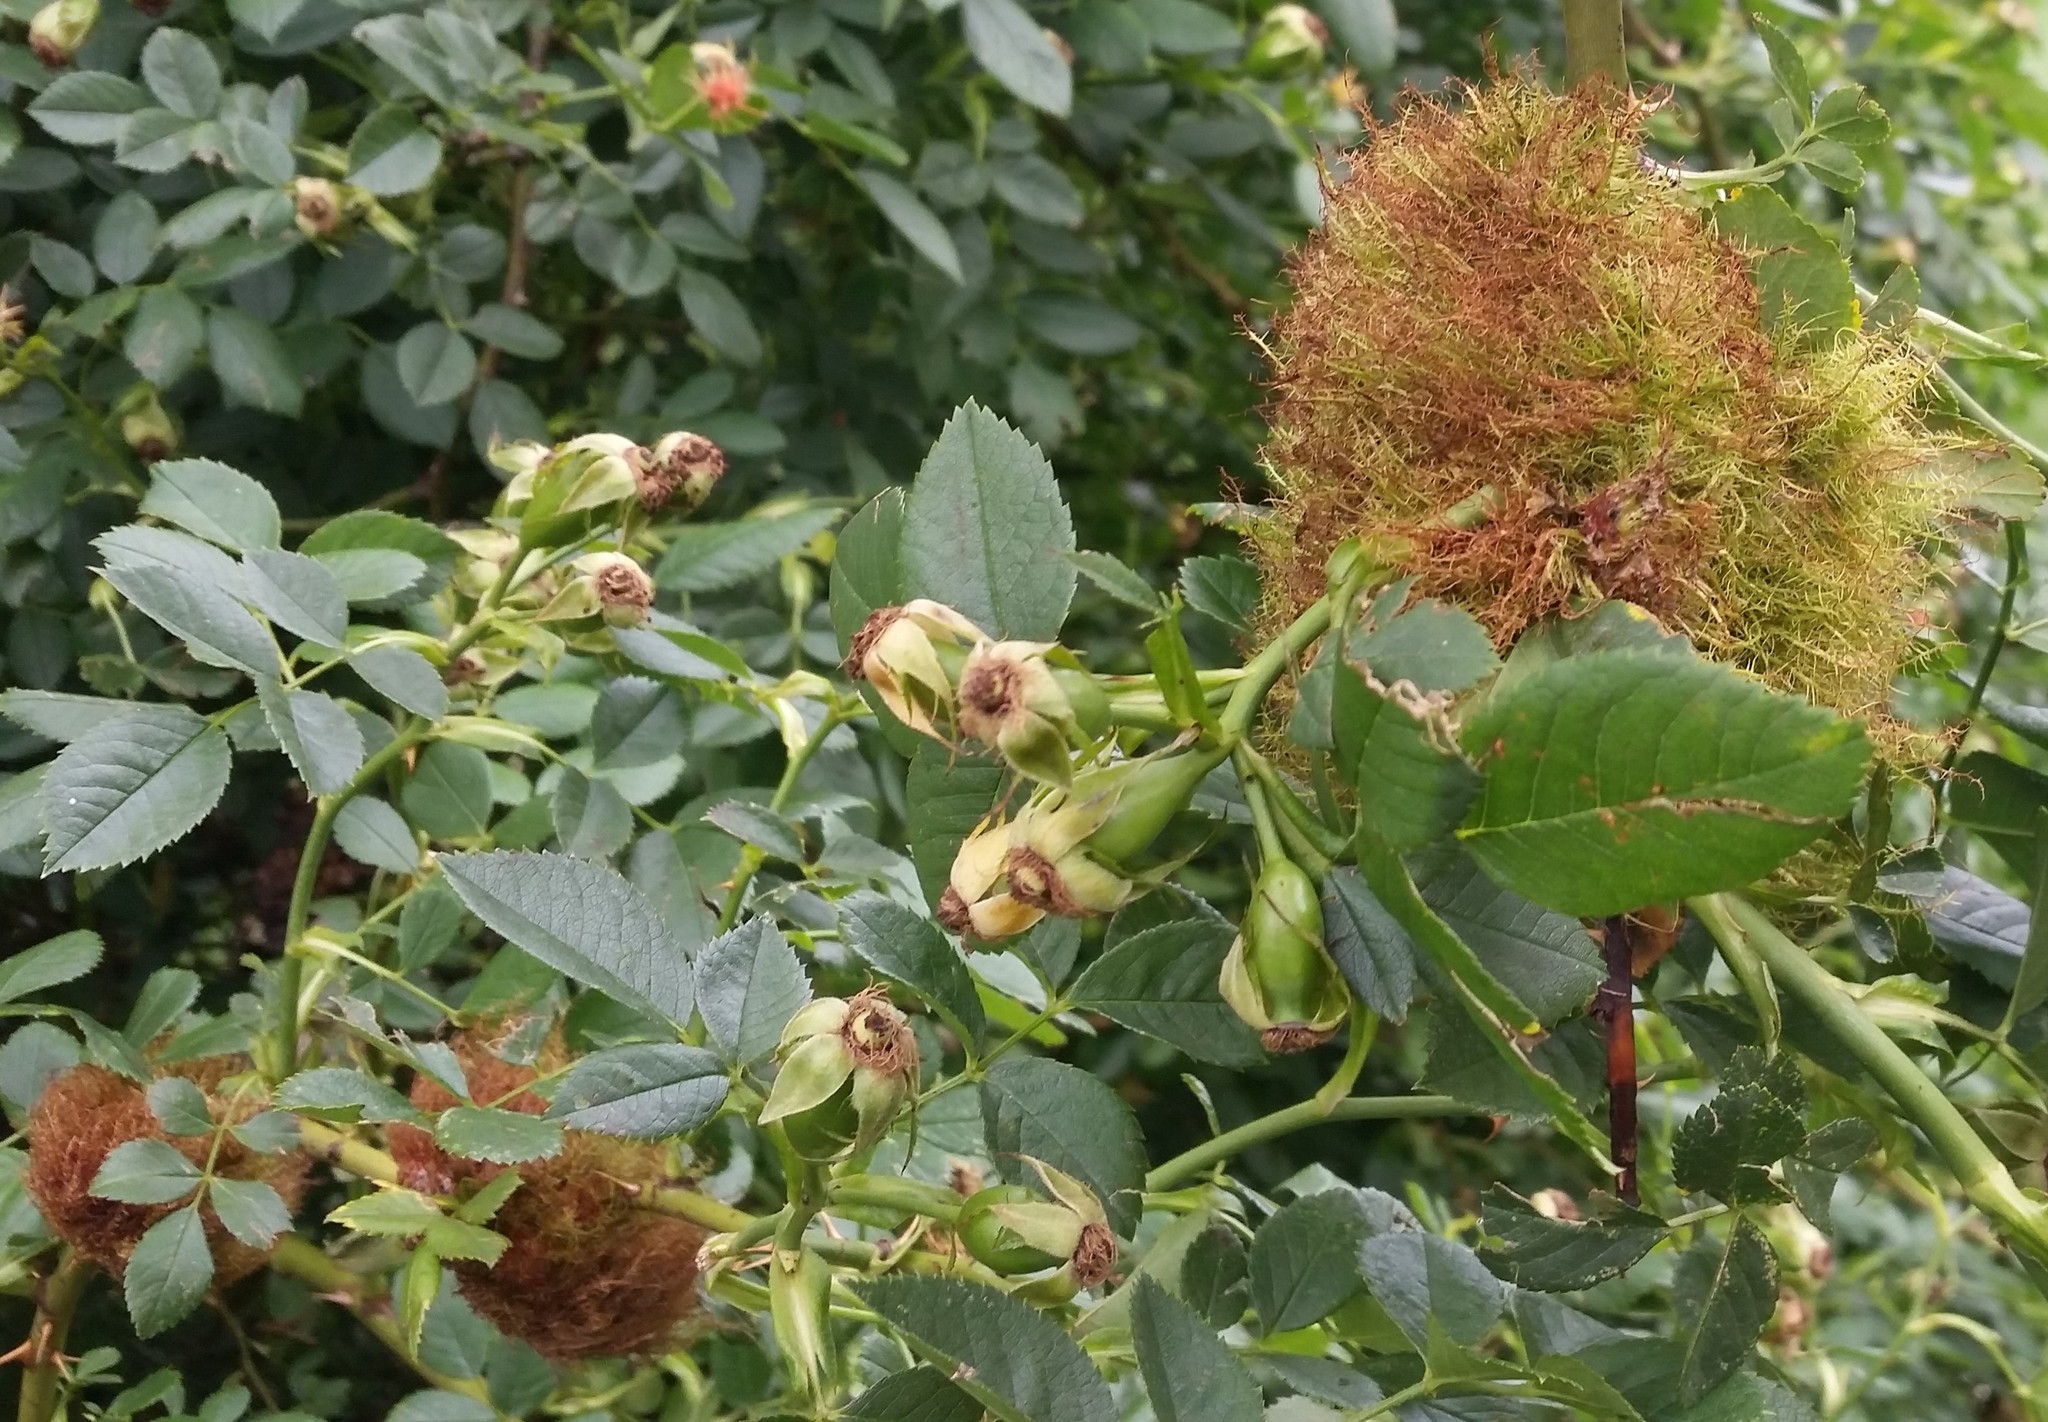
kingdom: Animalia
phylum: Arthropoda
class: Insecta
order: Hymenoptera
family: Cynipidae
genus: Diplolepis
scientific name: Diplolepis rosae
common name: Bedeguar gall
